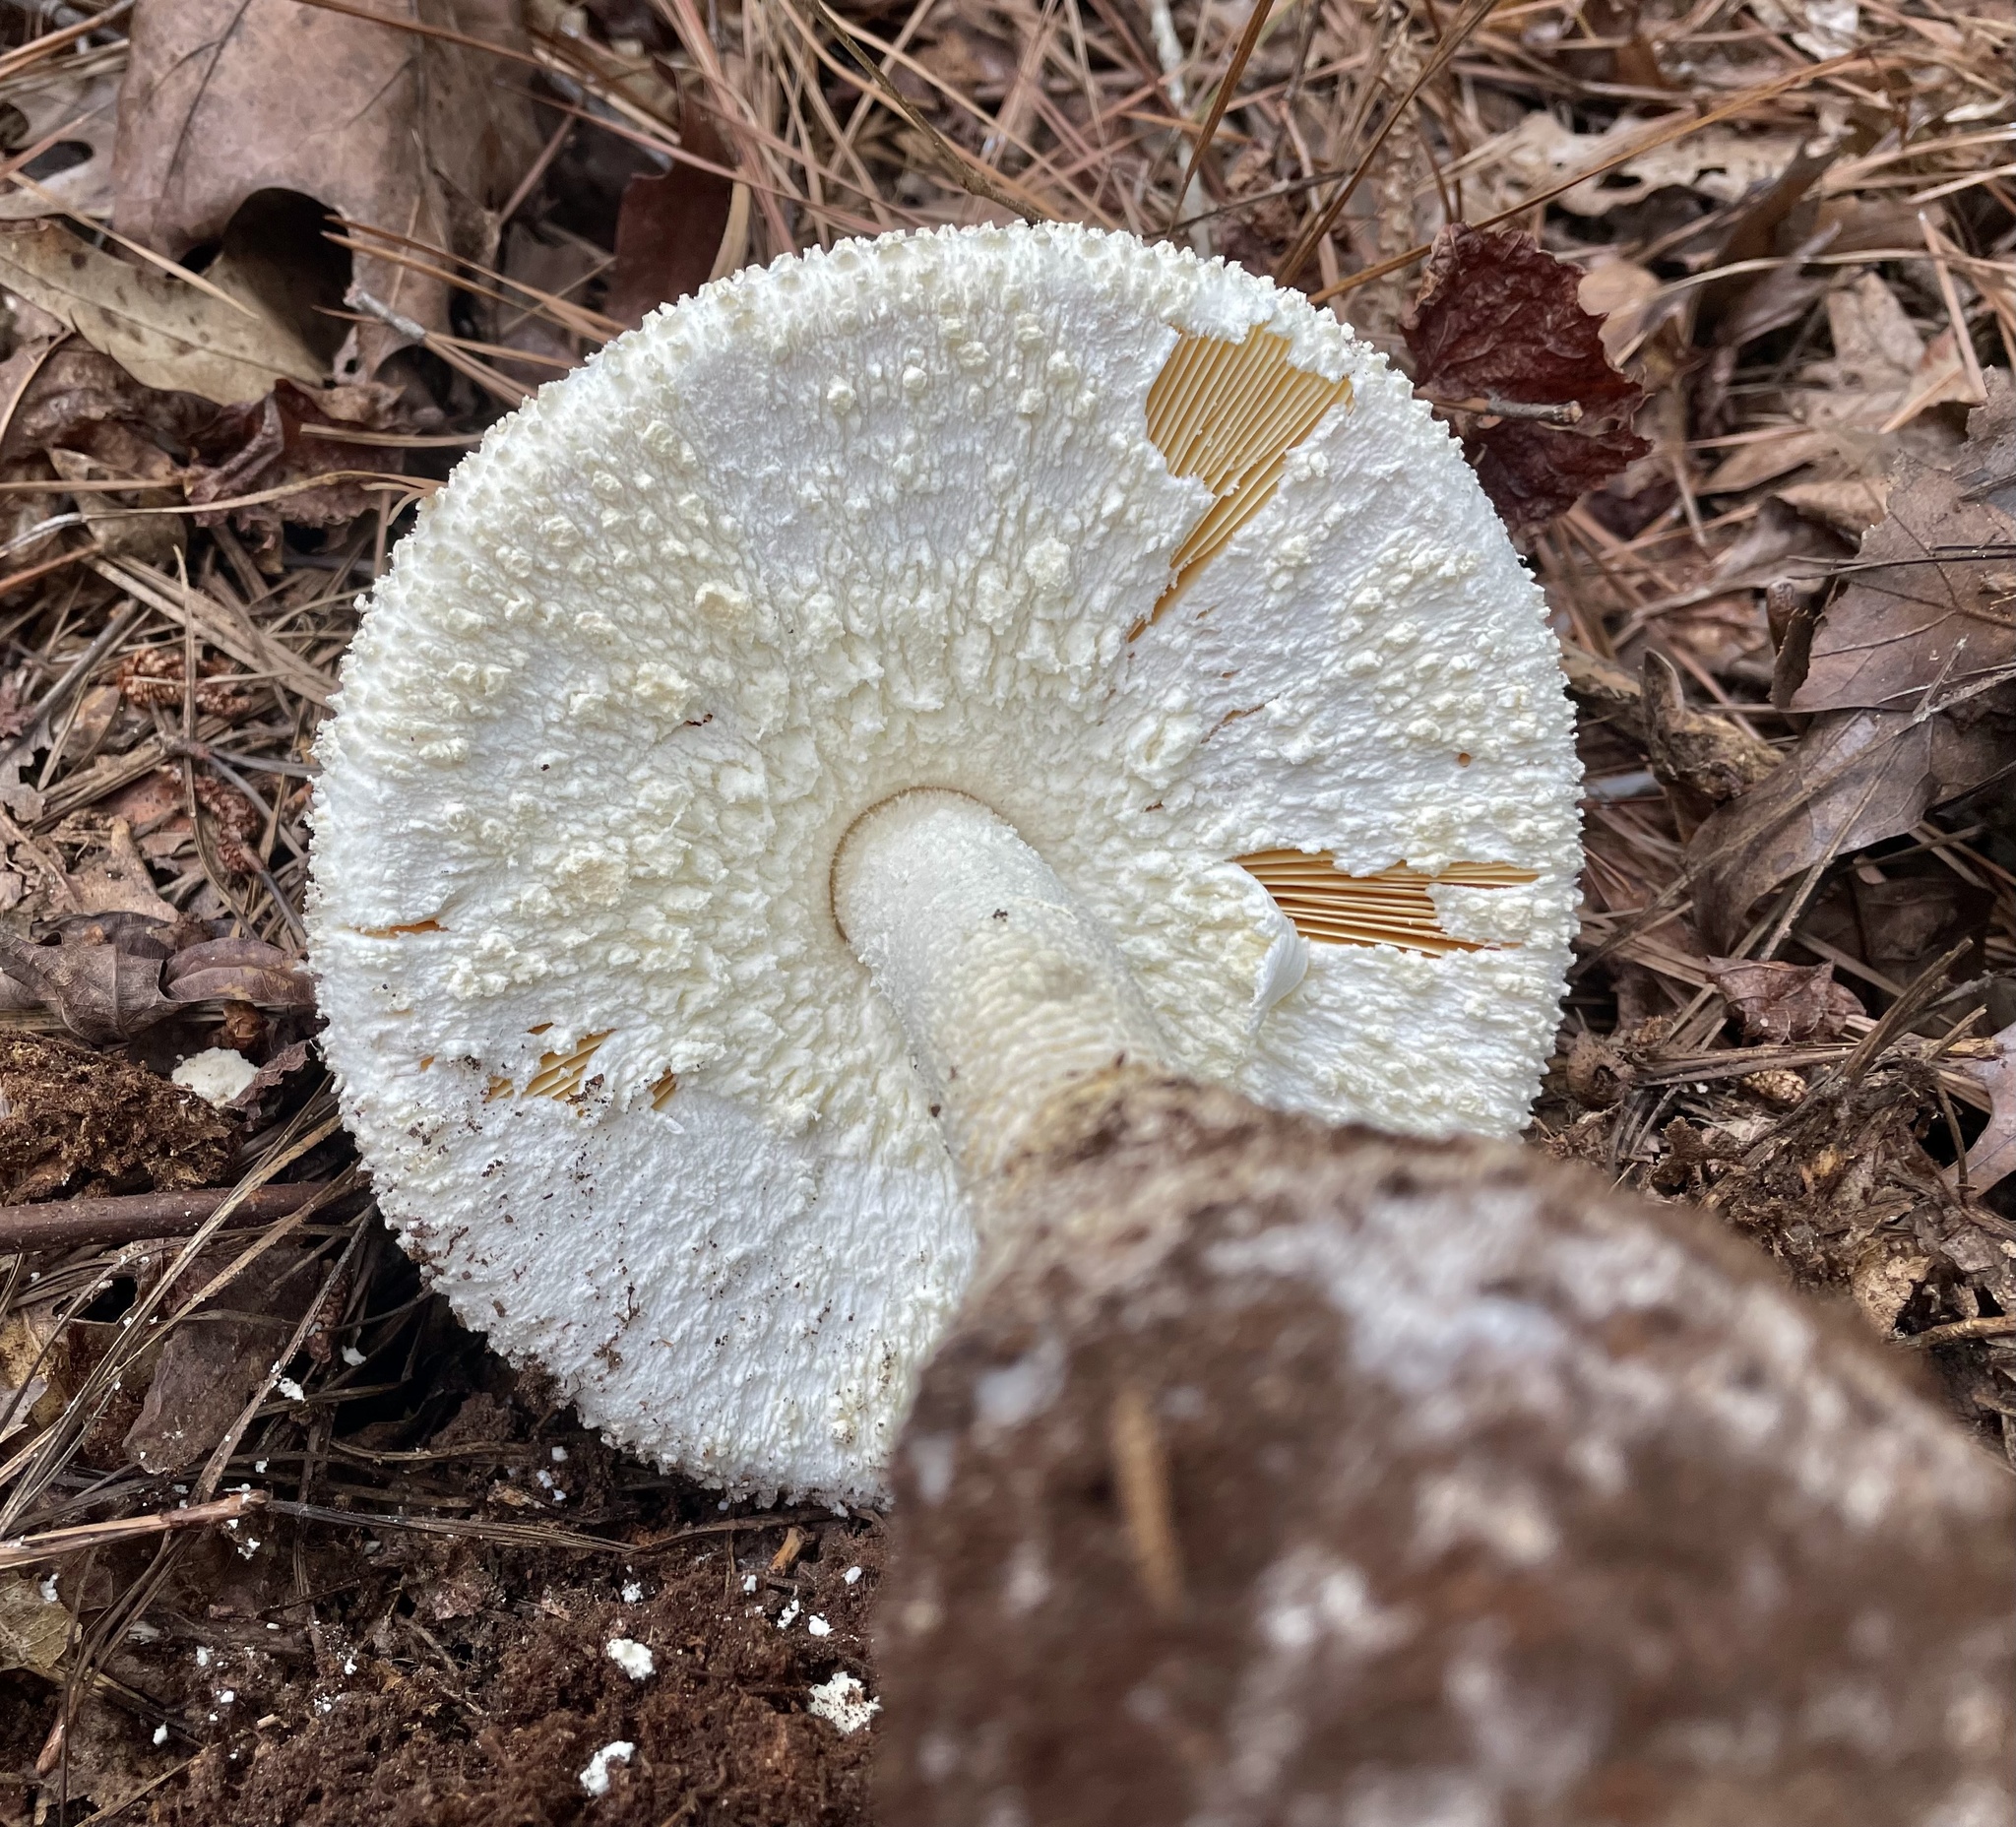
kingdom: Fungi
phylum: Basidiomycota
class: Agaricomycetes
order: Agaricales
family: Amanitaceae
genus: Amanita
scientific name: Amanita ravenelii
